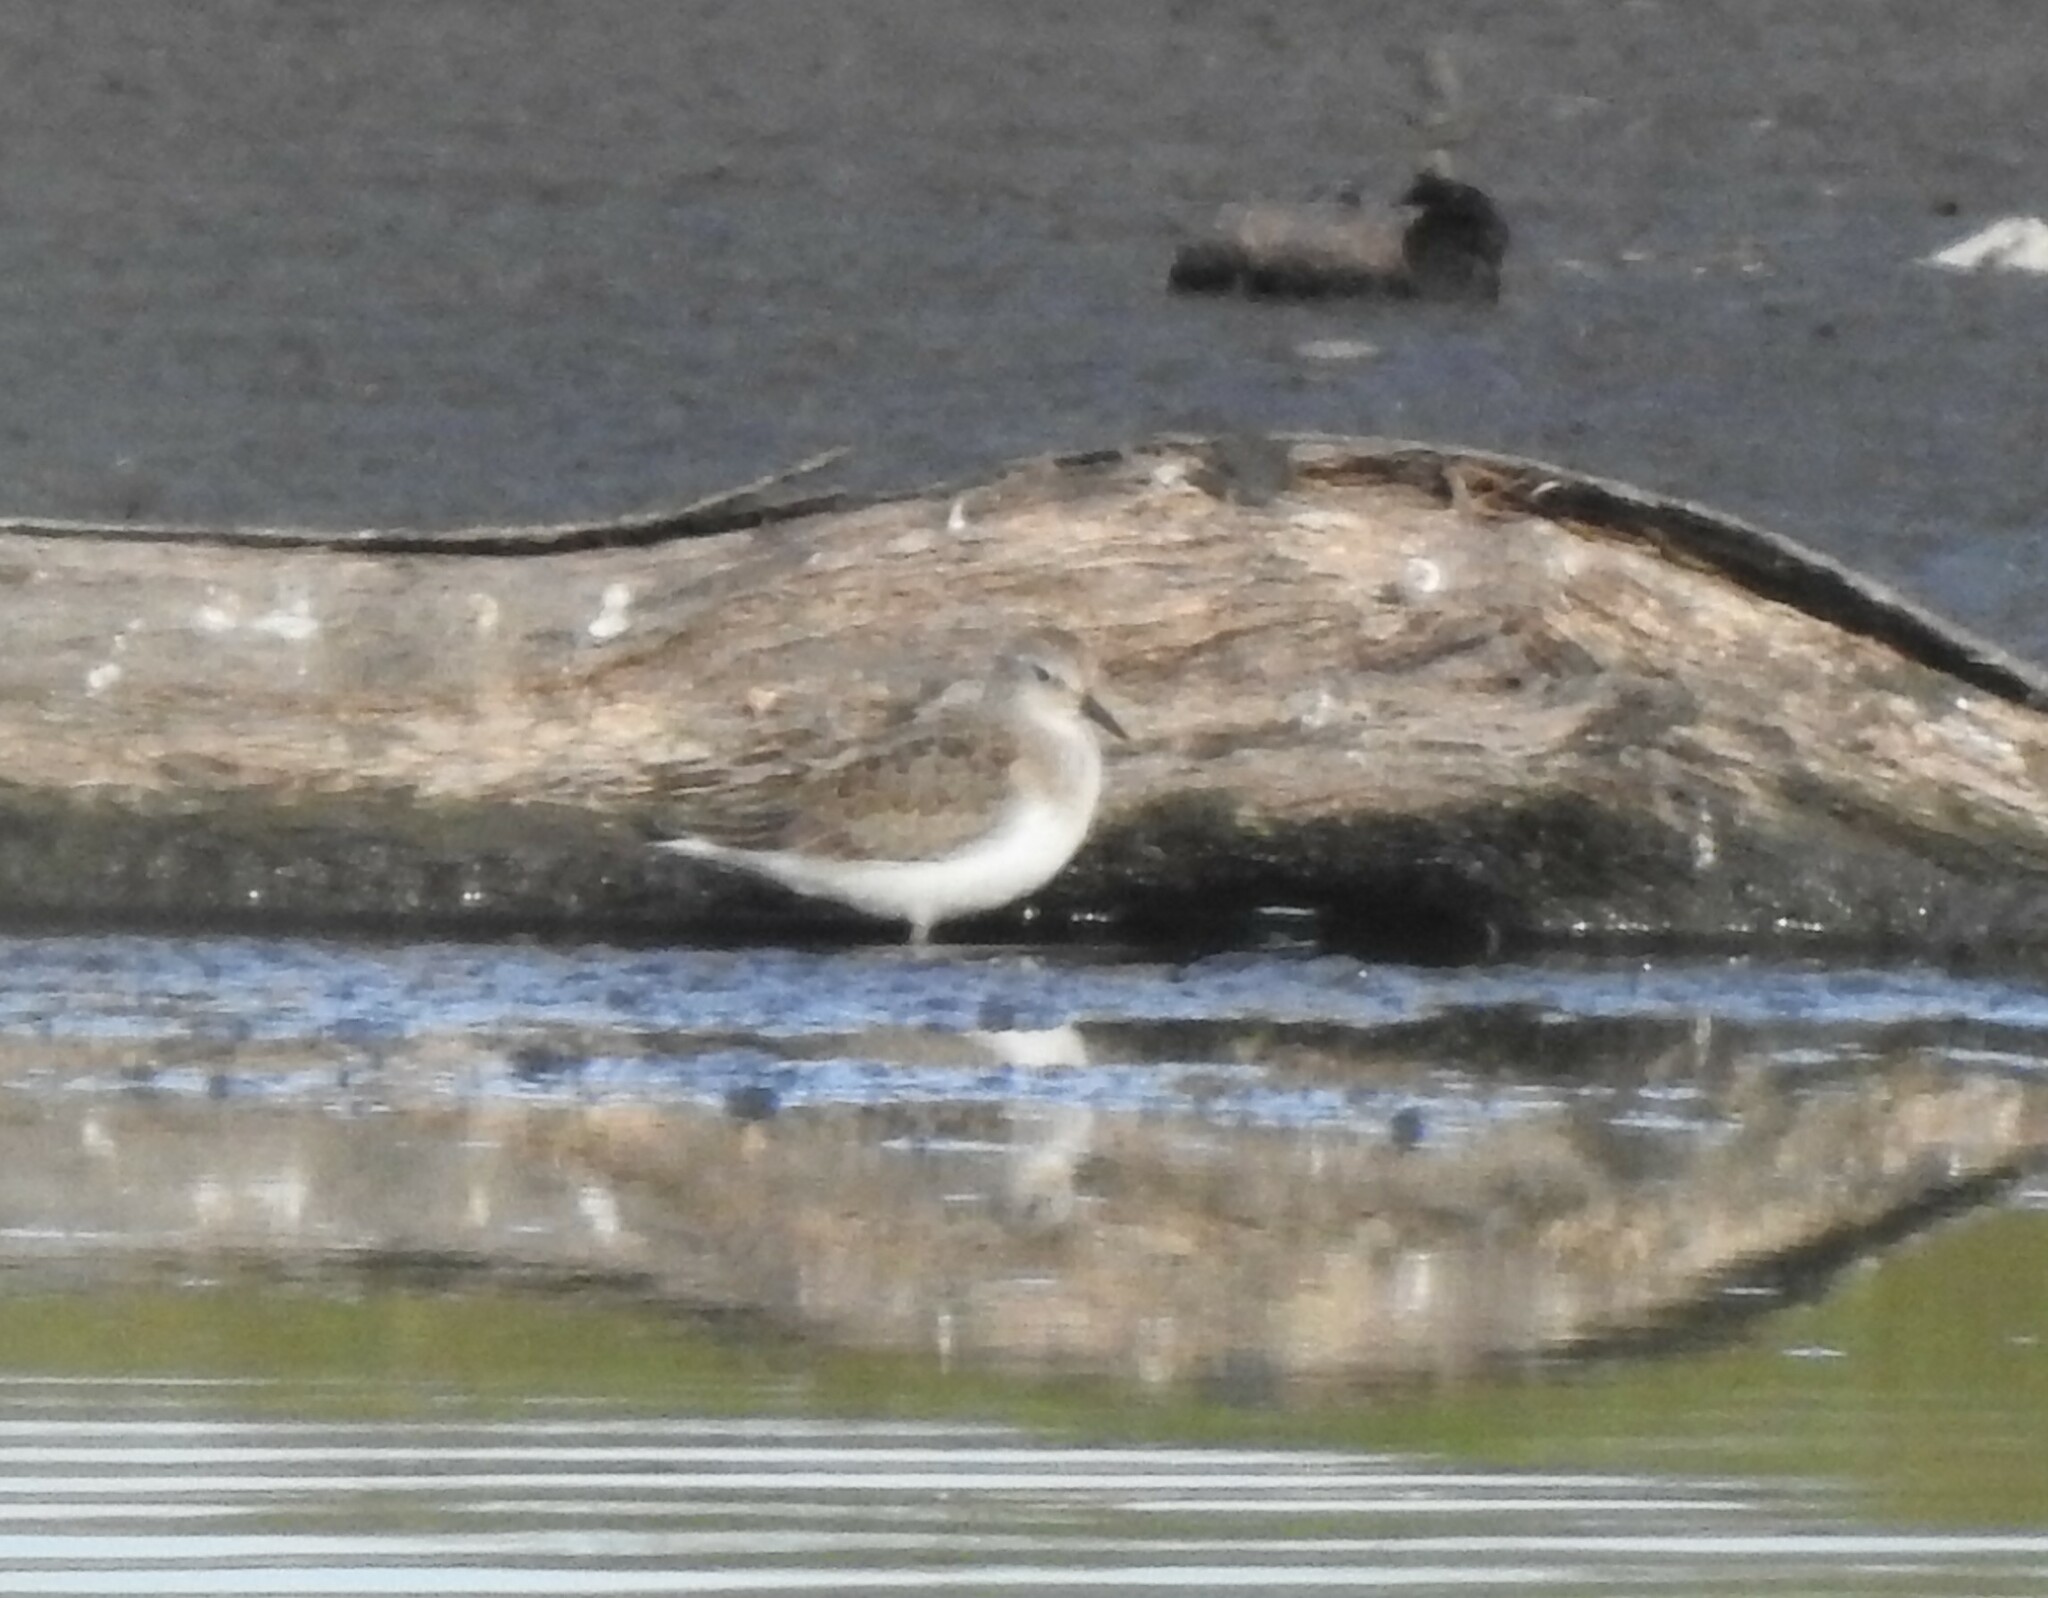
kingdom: Animalia
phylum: Chordata
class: Aves
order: Charadriiformes
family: Scolopacidae
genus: Calidris
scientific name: Calidris temminckii
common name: Temminck's stint
